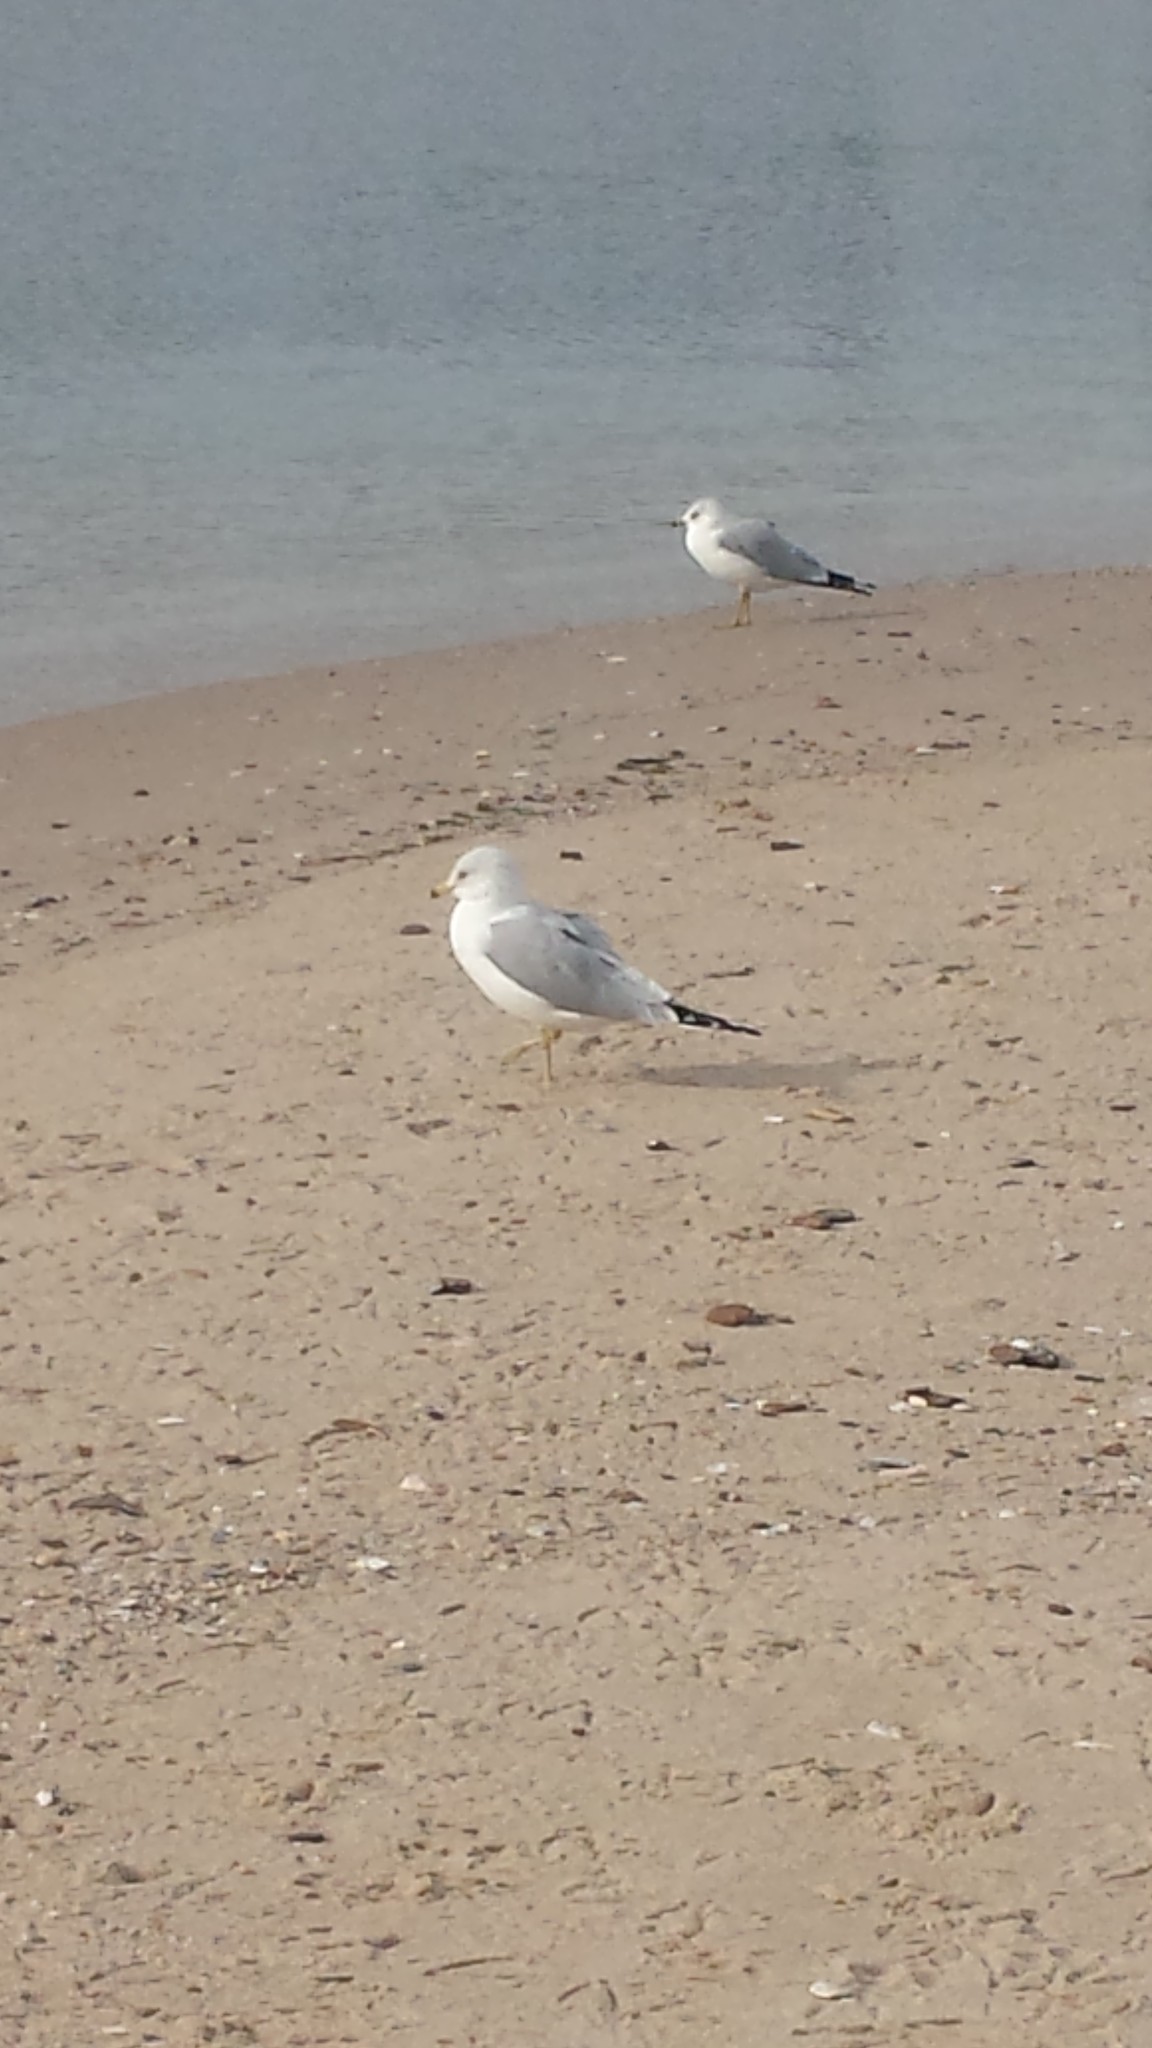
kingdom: Animalia
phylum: Chordata
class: Aves
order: Charadriiformes
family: Laridae
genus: Larus
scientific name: Larus delawarensis
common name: Ring-billed gull
